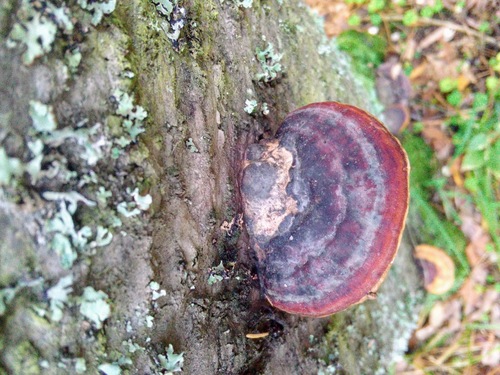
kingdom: Fungi
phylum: Basidiomycota
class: Agaricomycetes
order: Polyporales
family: Fomitopsidaceae
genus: Fomitopsis
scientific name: Fomitopsis pinicola
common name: Red-belted bracket
